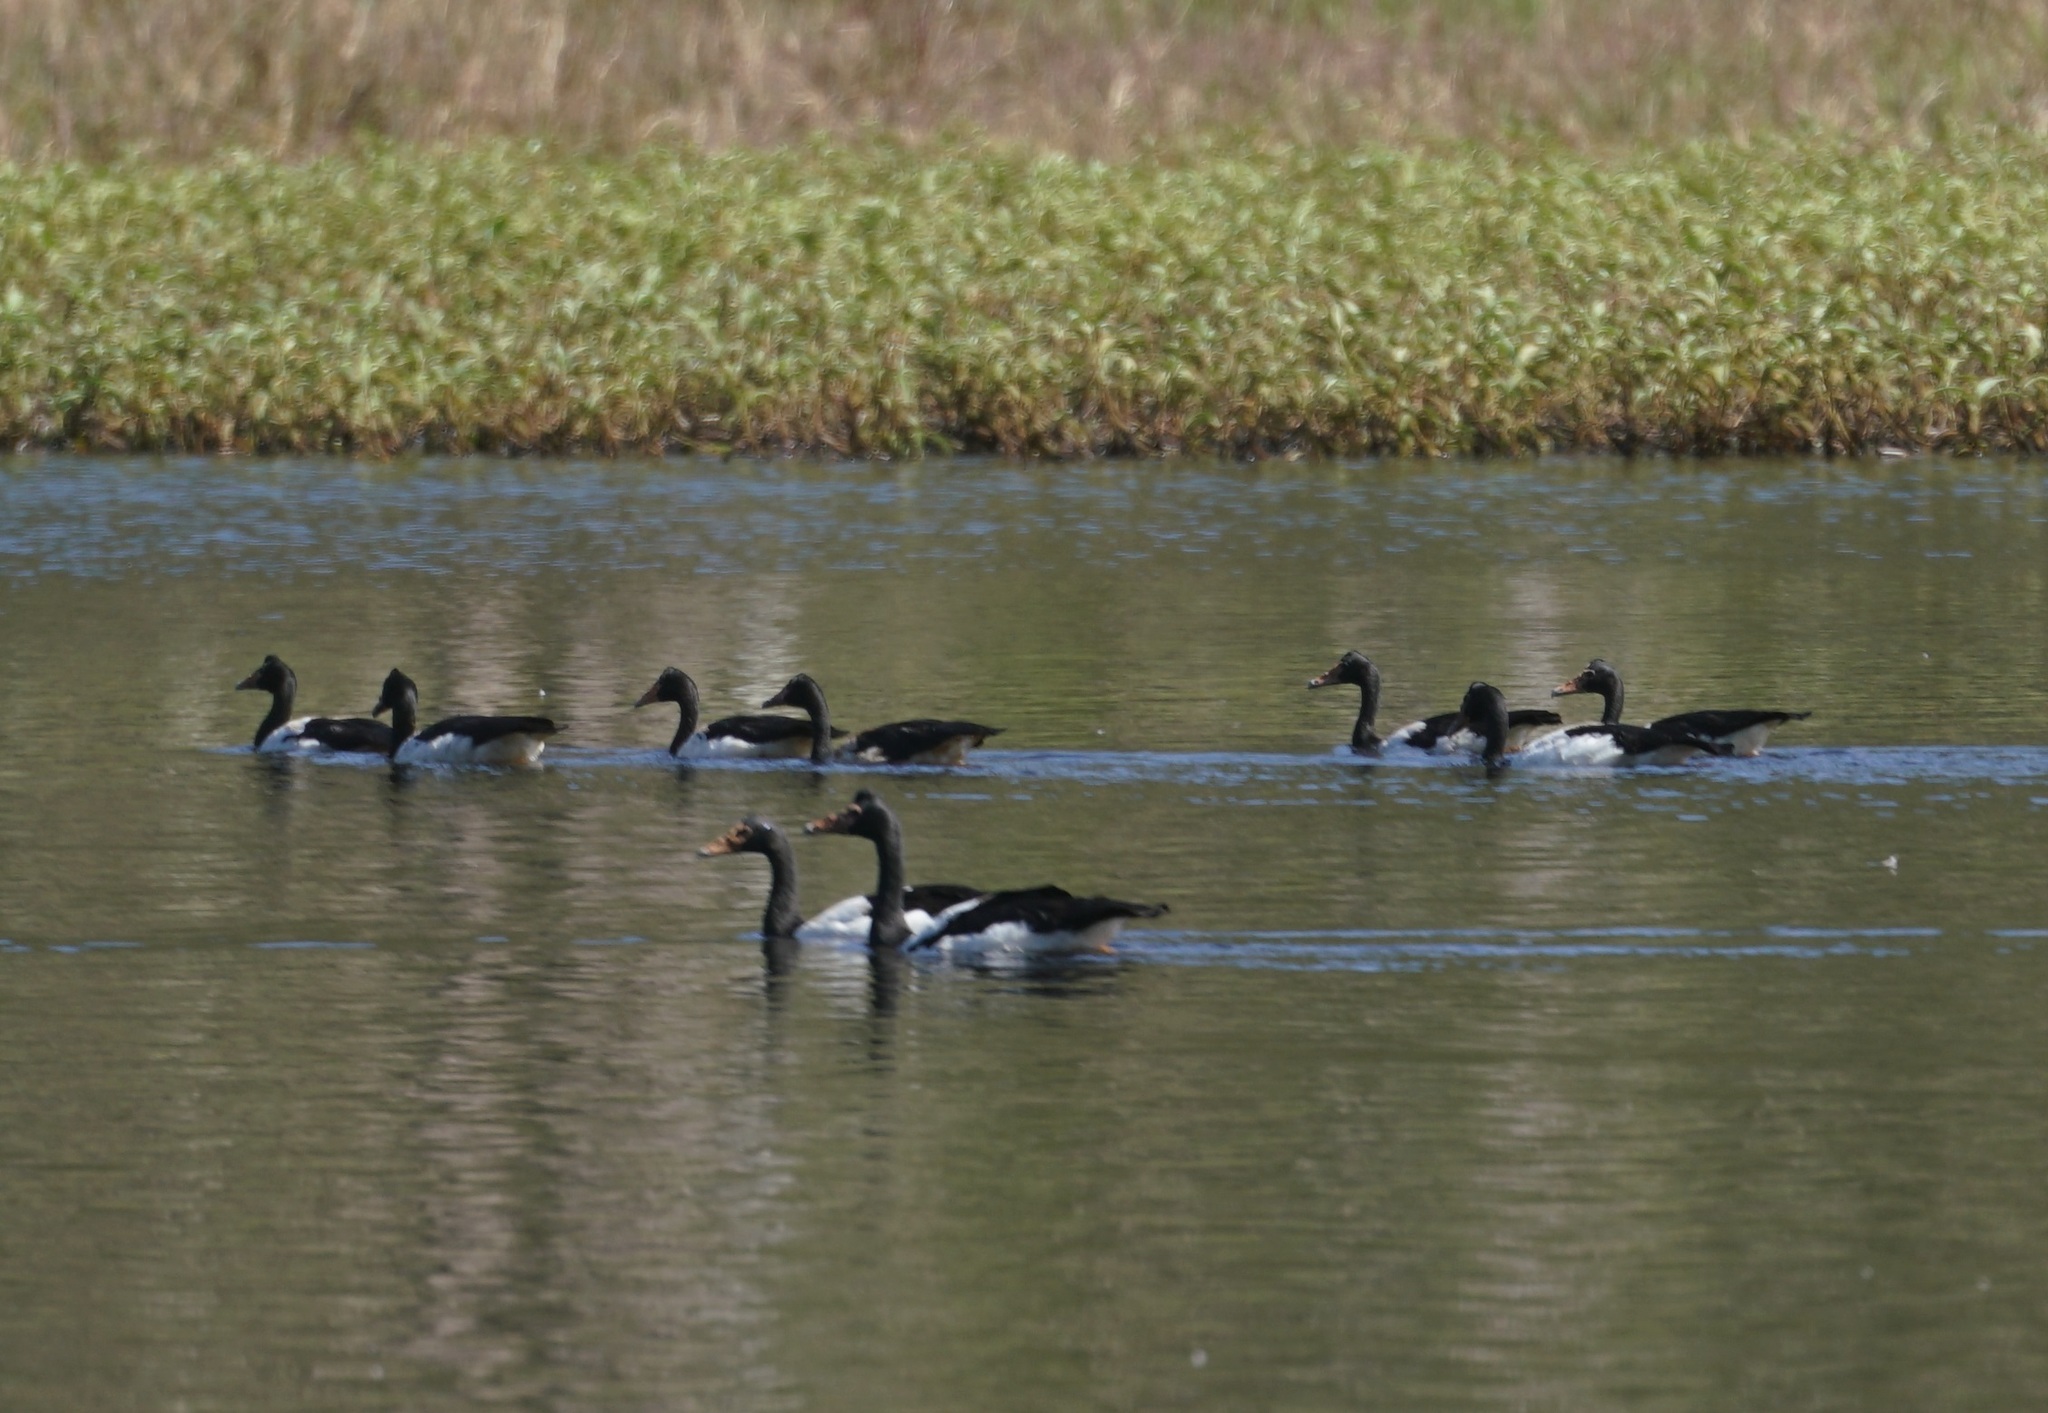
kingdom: Animalia
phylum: Chordata
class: Aves
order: Anseriformes
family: Anseranatidae
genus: Anseranas
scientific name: Anseranas semipalmata
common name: Magpie goose
